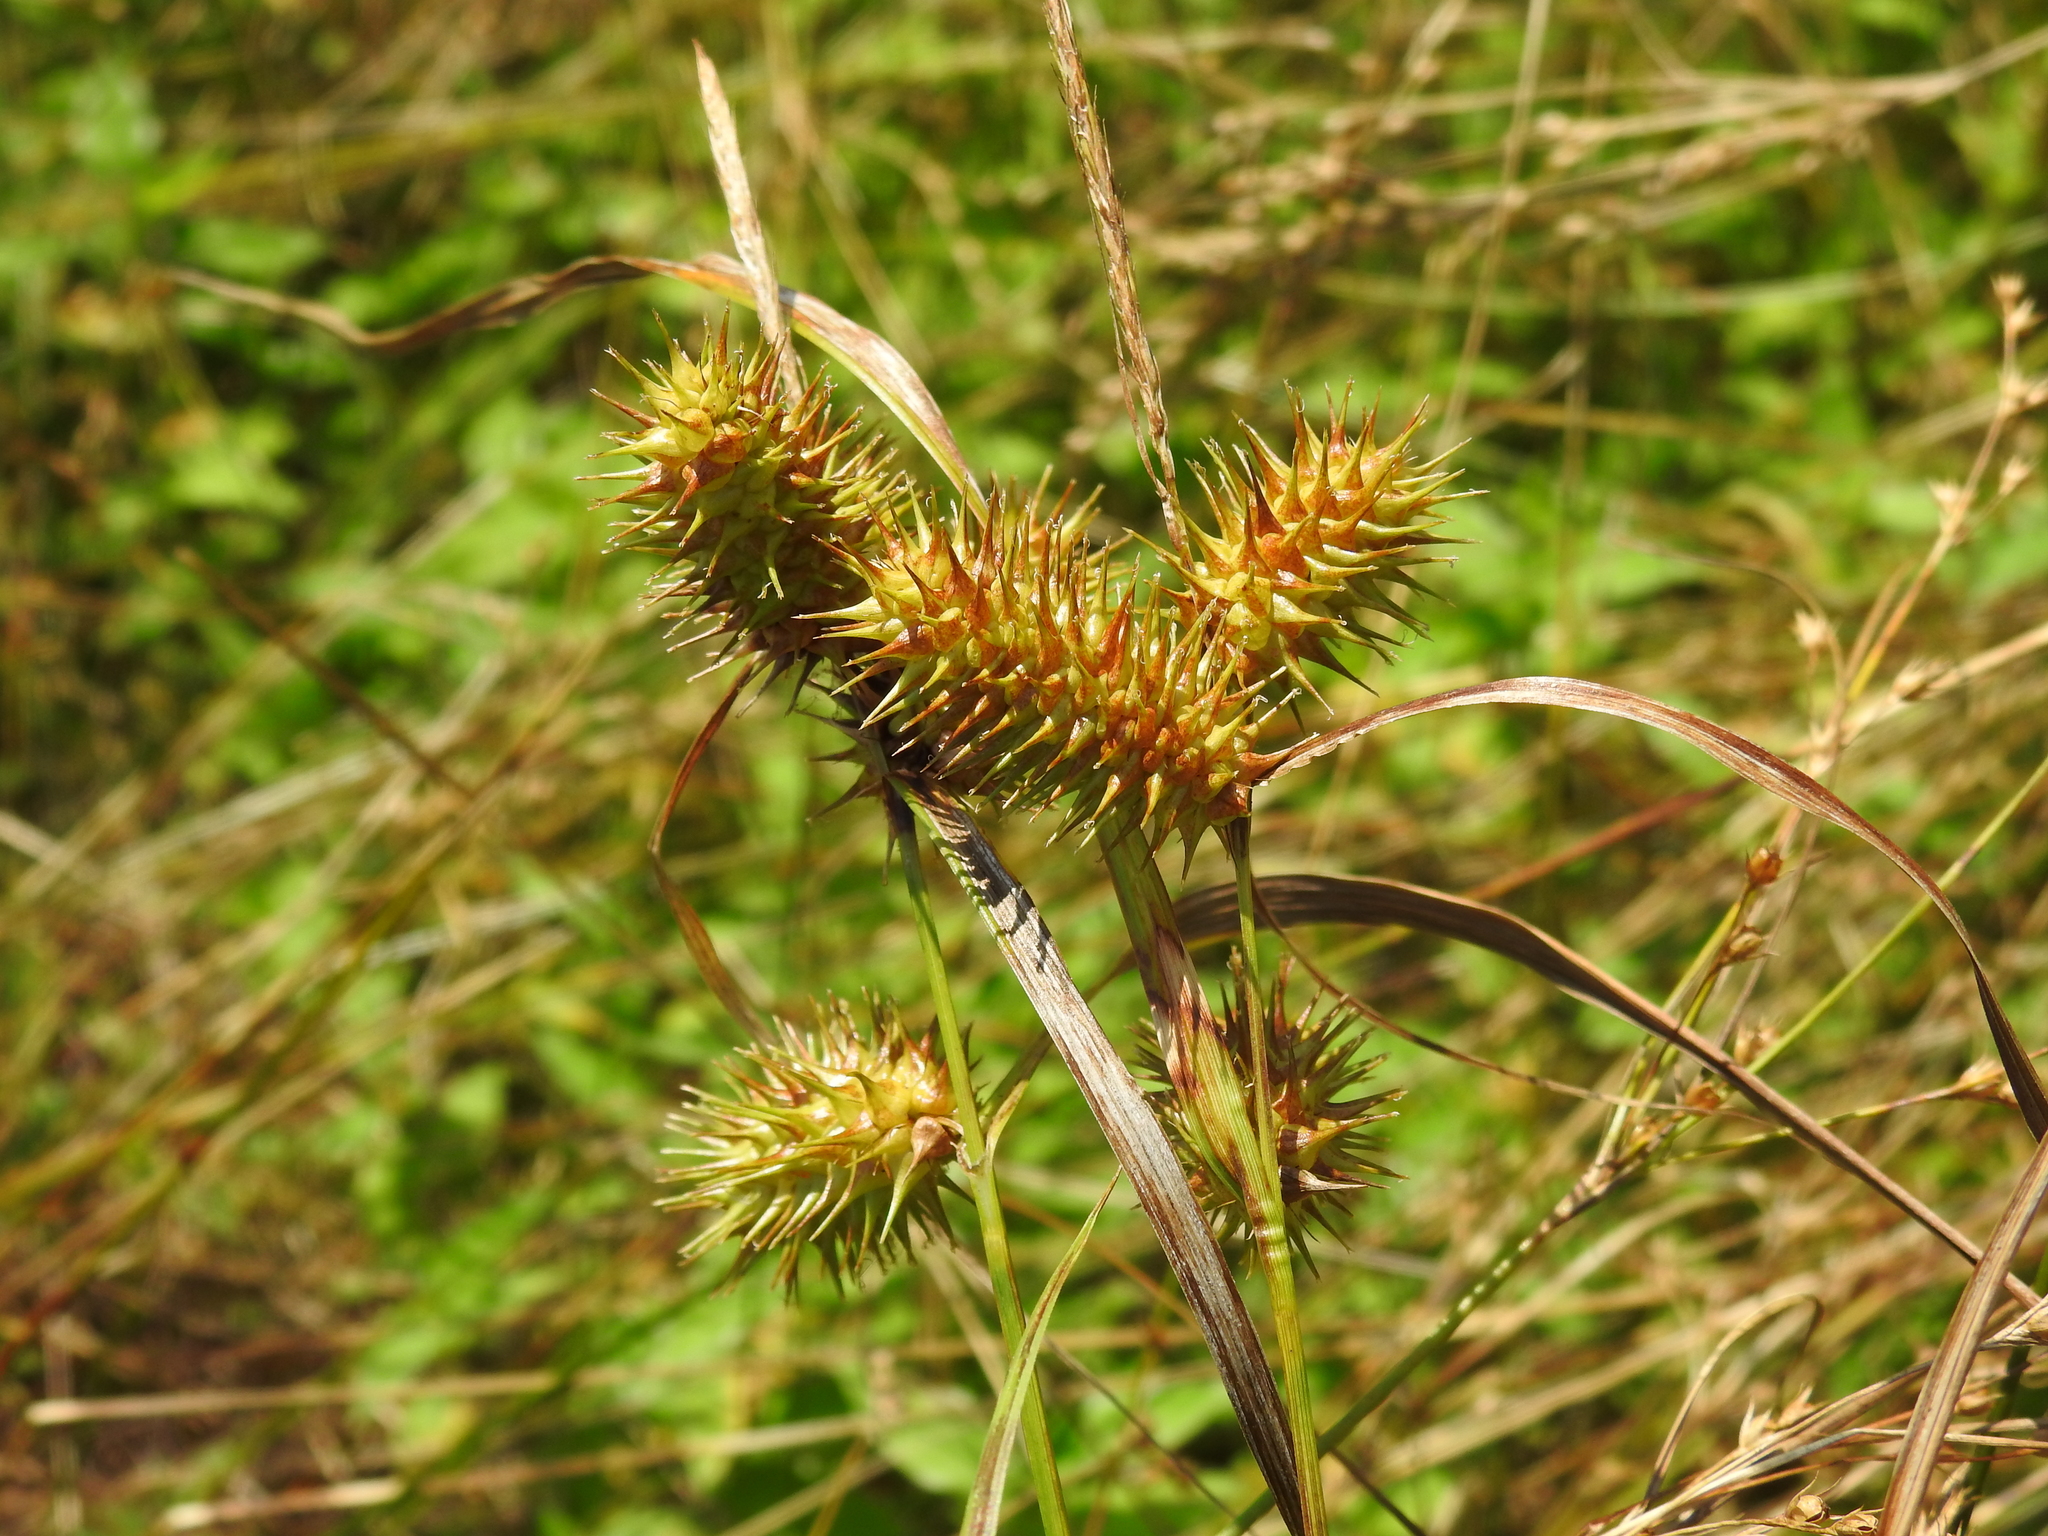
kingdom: Plantae
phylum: Tracheophyta
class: Liliopsida
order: Poales
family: Cyperaceae
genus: Carex
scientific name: Carex lurida
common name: Sallow sedge
